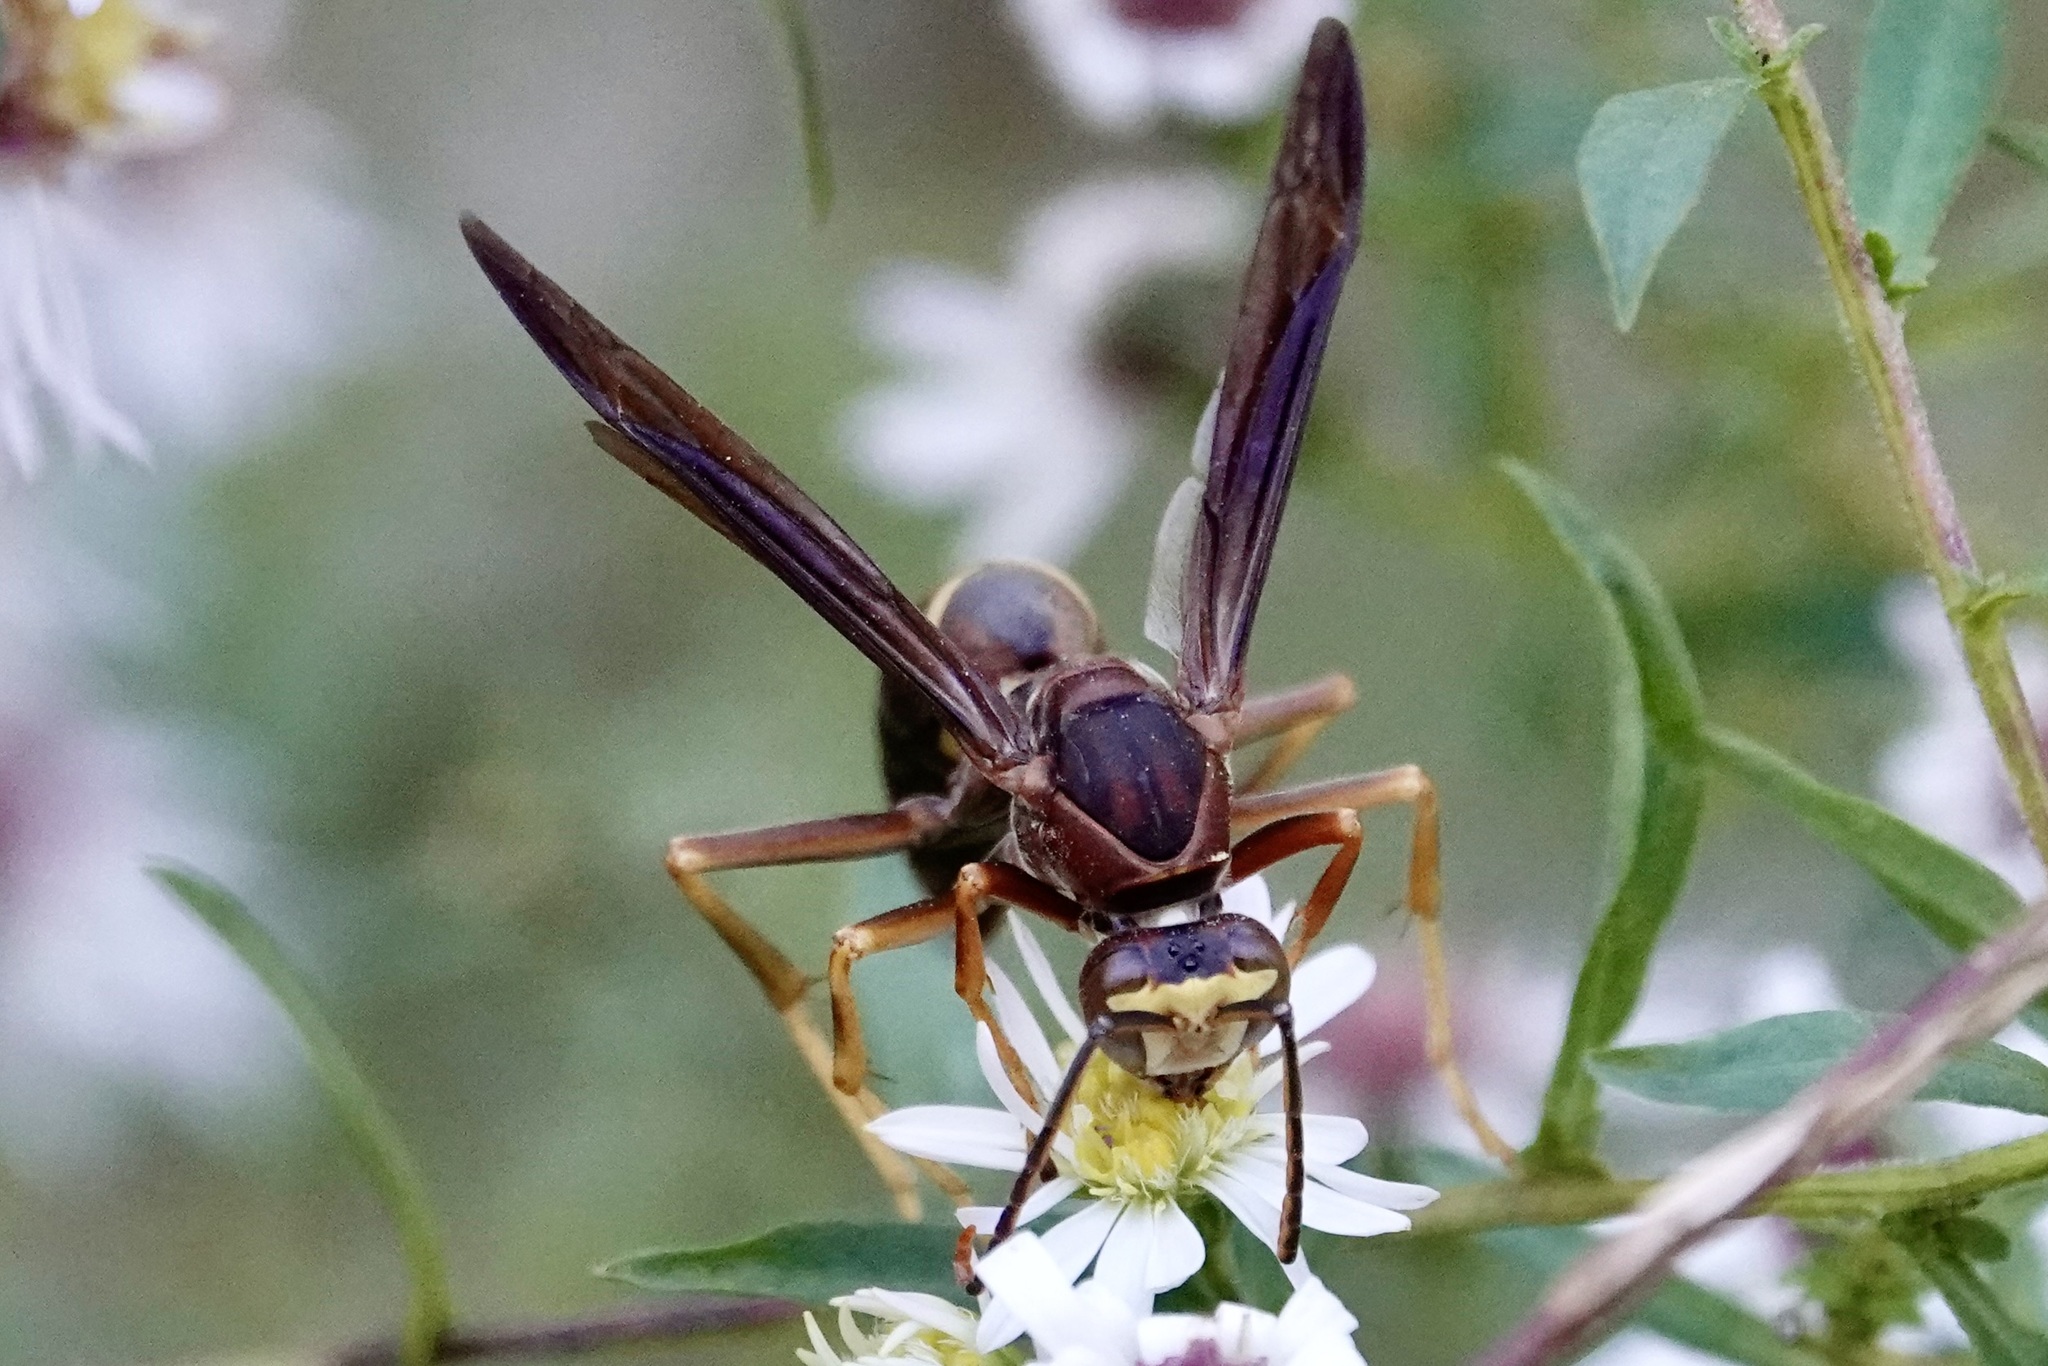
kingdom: Animalia
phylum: Arthropoda
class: Insecta
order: Hymenoptera
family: Eumenidae
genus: Polistes
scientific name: Polistes metricus
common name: Metric paper wasp
